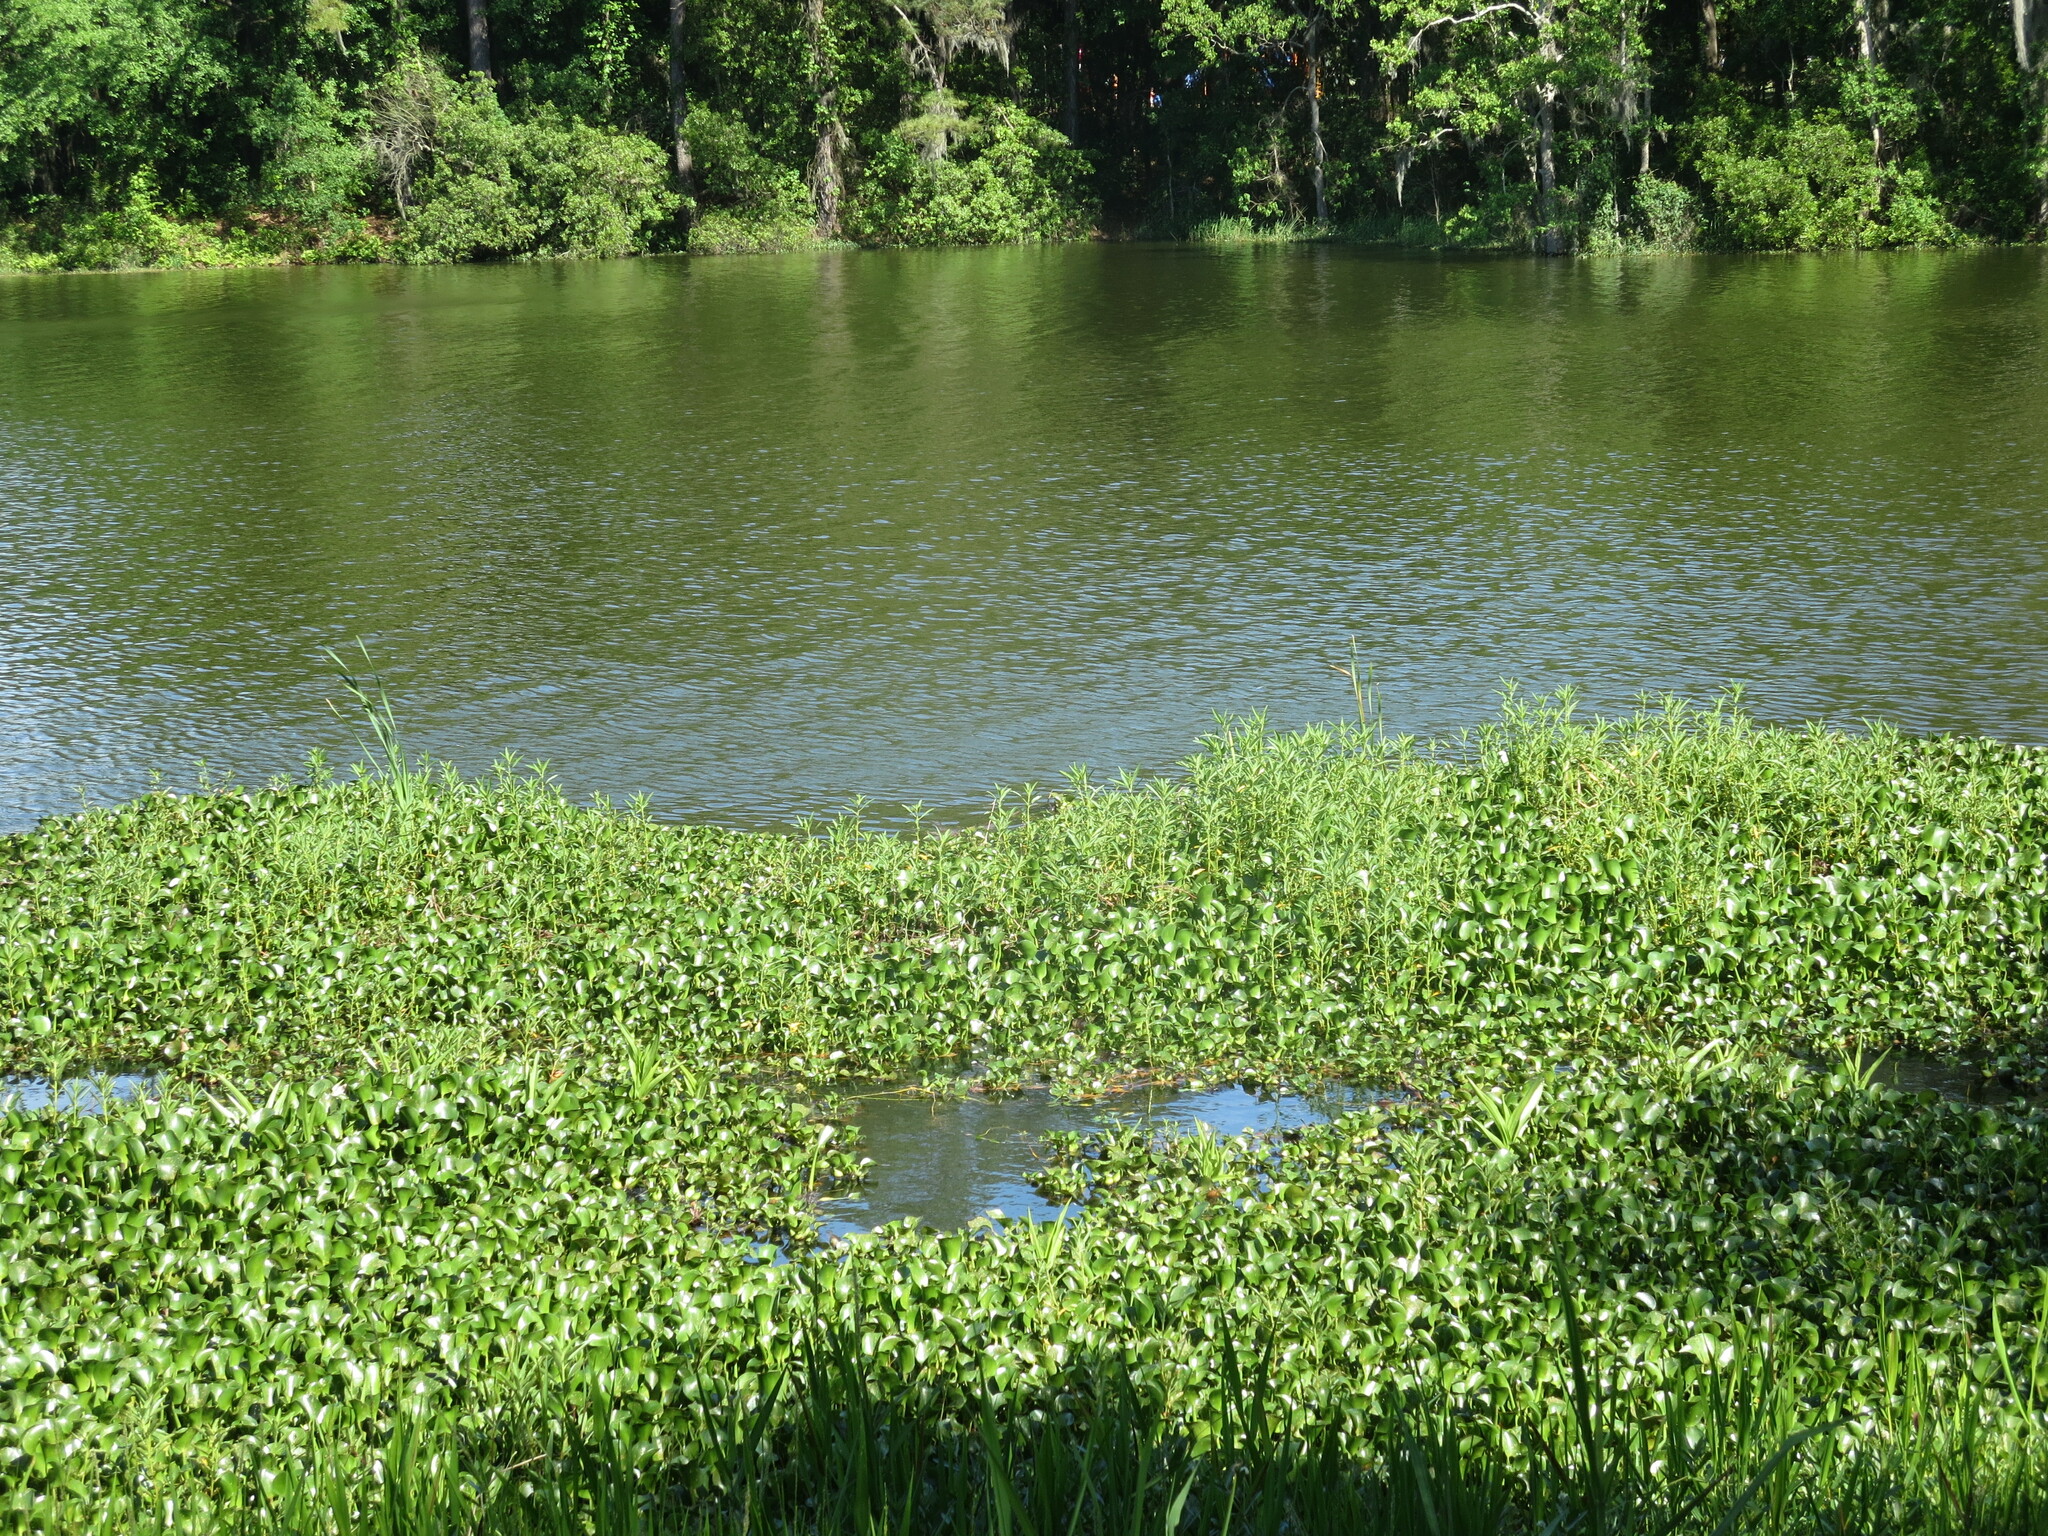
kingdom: Plantae
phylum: Tracheophyta
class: Liliopsida
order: Commelinales
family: Pontederiaceae
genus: Pontederia
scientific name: Pontederia crassipes
